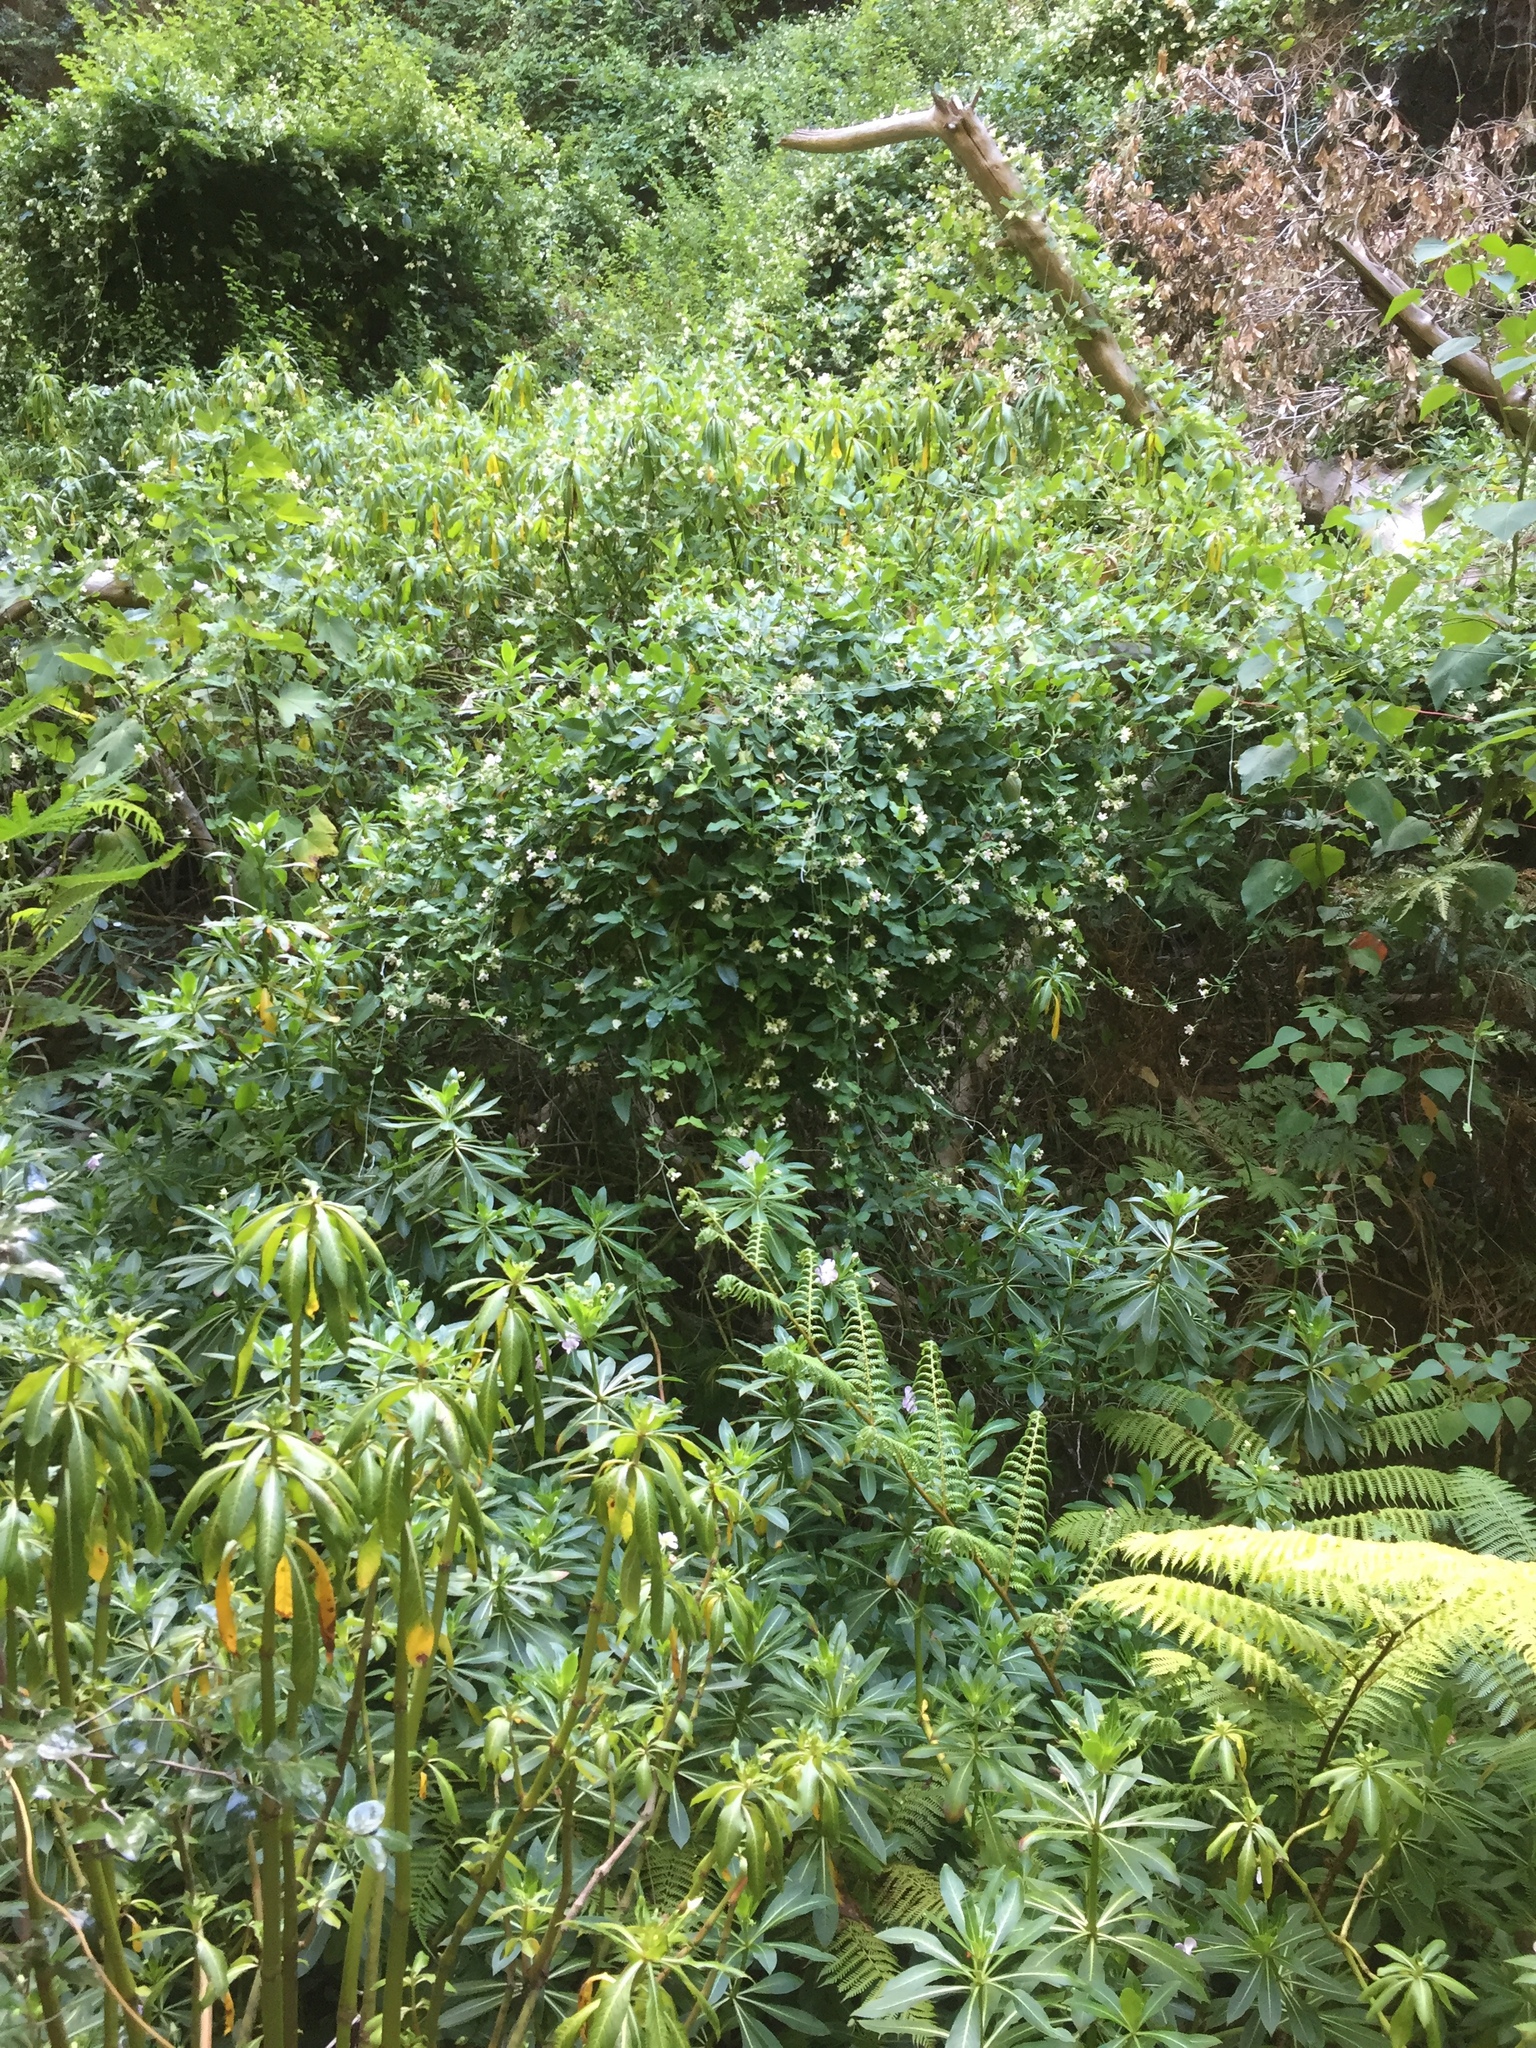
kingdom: Plantae
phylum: Tracheophyta
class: Magnoliopsida
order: Gentianales
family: Apocynaceae
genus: Araujia
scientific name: Araujia sericifera
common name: White bladderflower
